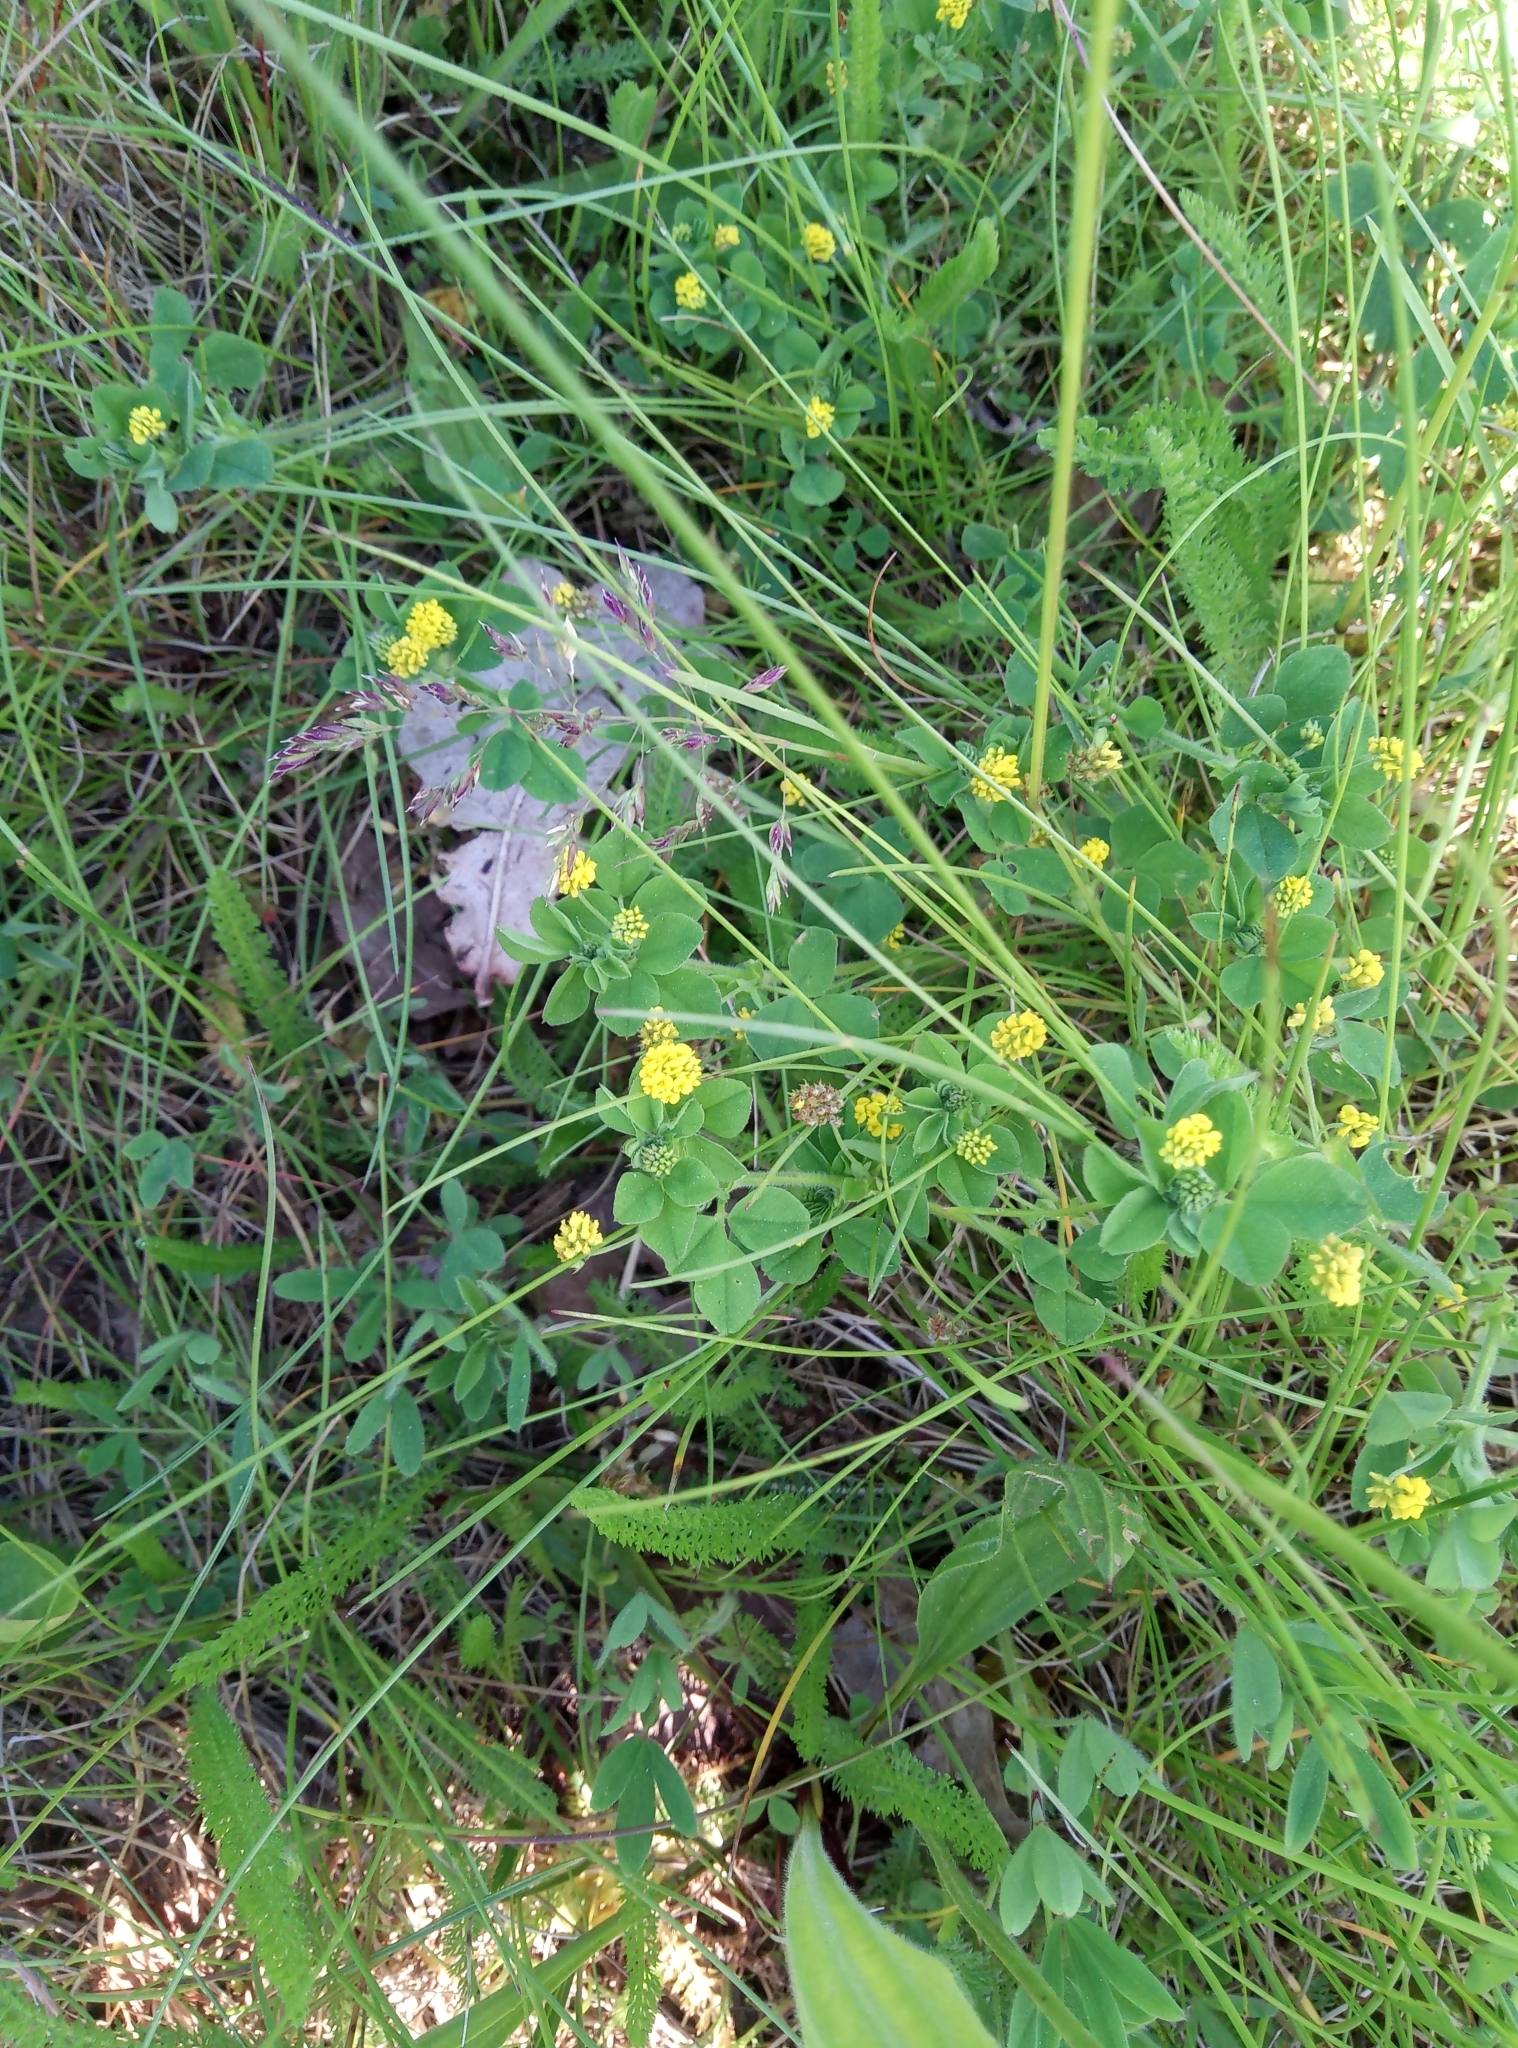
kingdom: Plantae
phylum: Tracheophyta
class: Magnoliopsida
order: Fabales
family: Fabaceae
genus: Medicago
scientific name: Medicago lupulina
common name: Black medick
